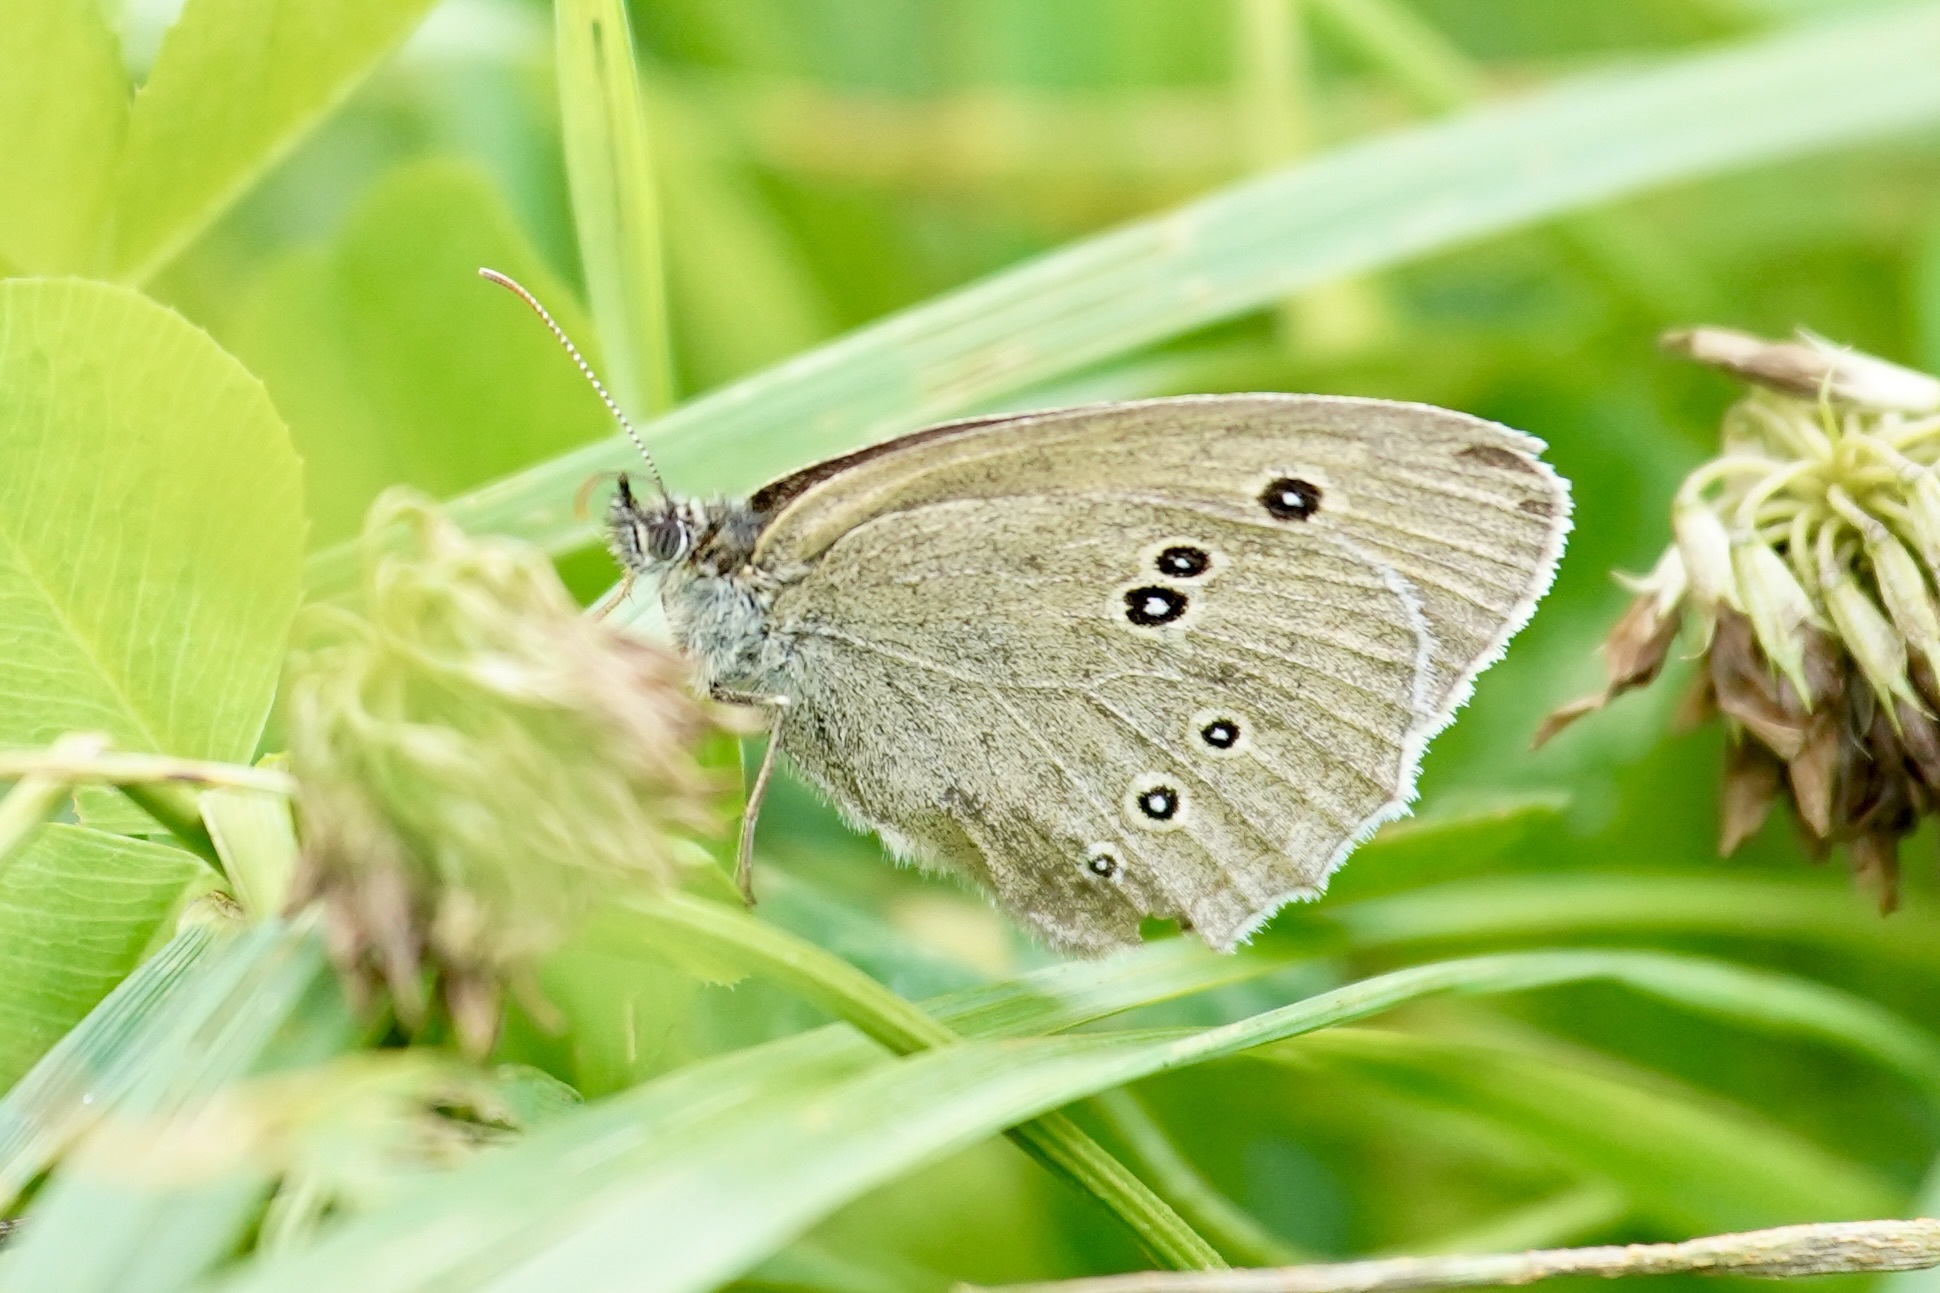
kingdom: Animalia
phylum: Arthropoda
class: Insecta
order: Lepidoptera
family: Nymphalidae
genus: Aphantopus
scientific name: Aphantopus hyperantus
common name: Ringlet
